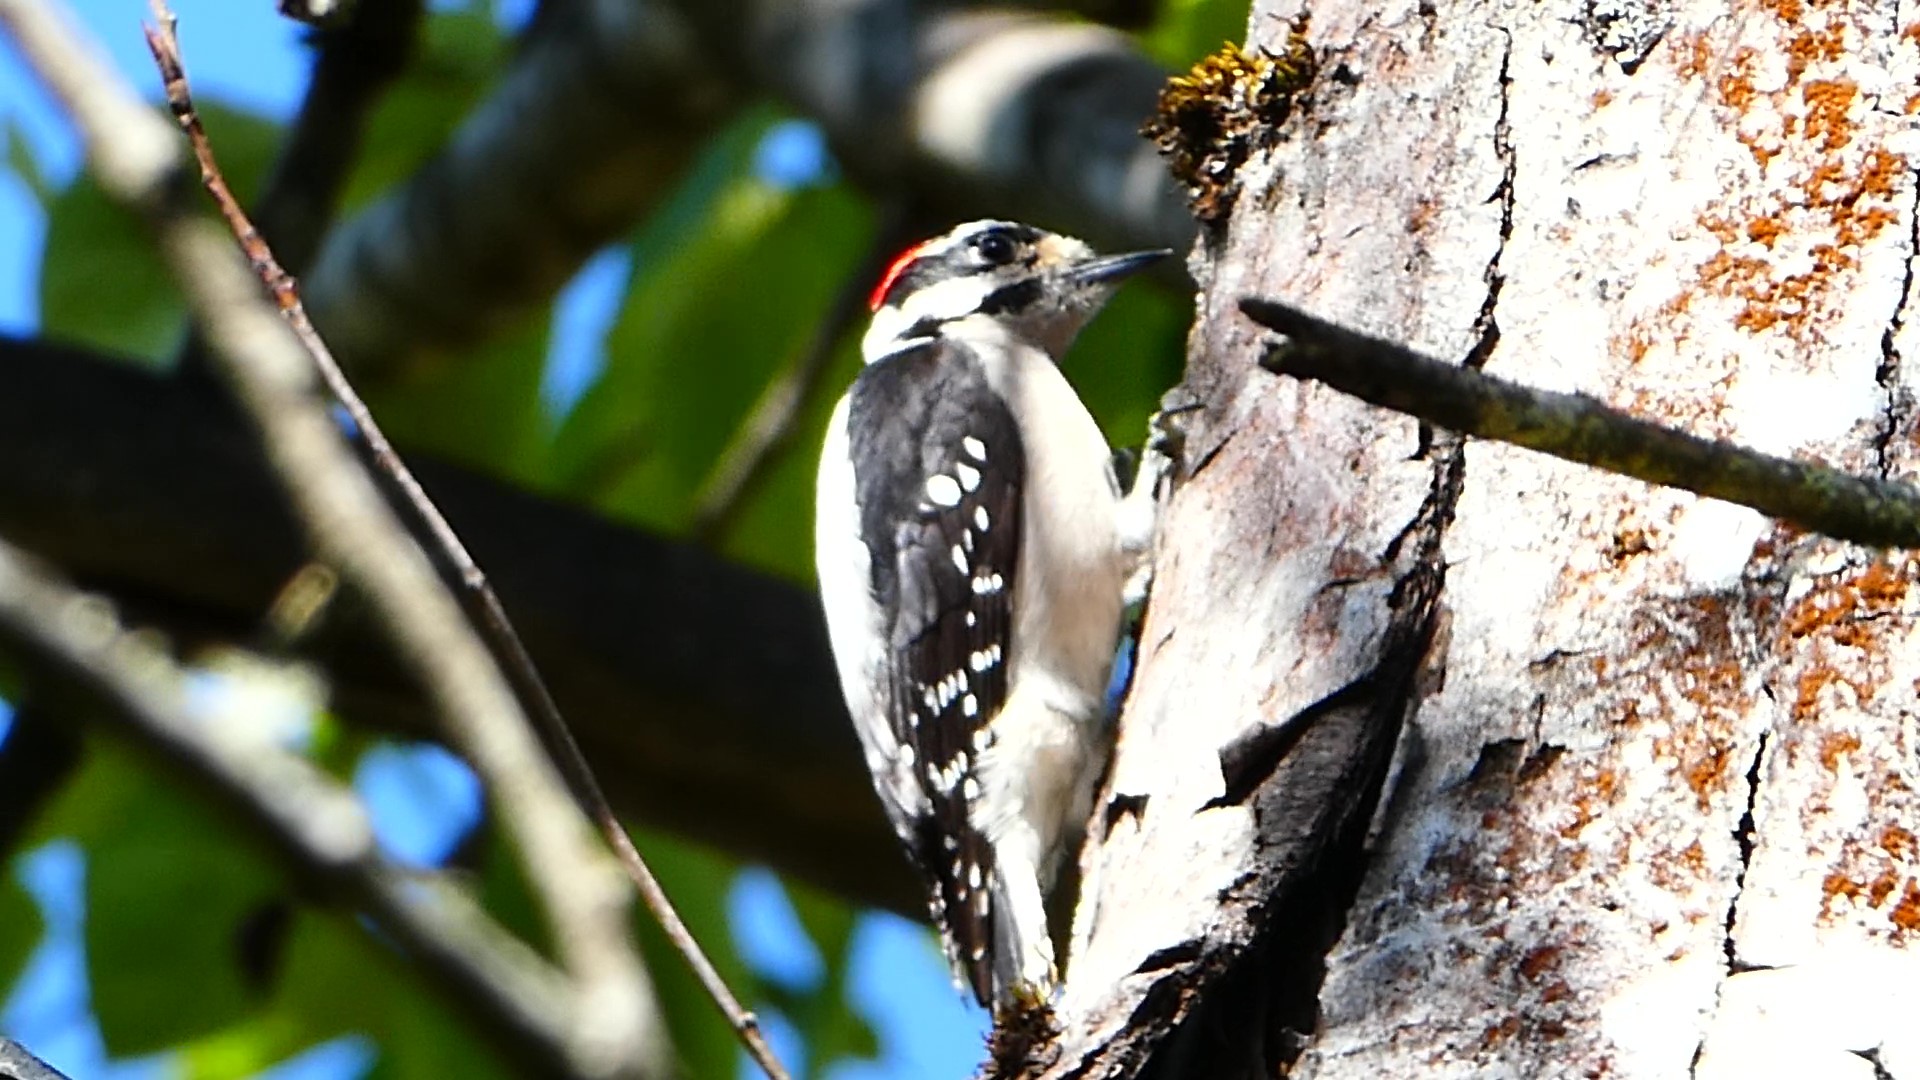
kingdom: Animalia
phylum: Chordata
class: Aves
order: Piciformes
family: Picidae
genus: Dryobates
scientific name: Dryobates pubescens
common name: Downy woodpecker
